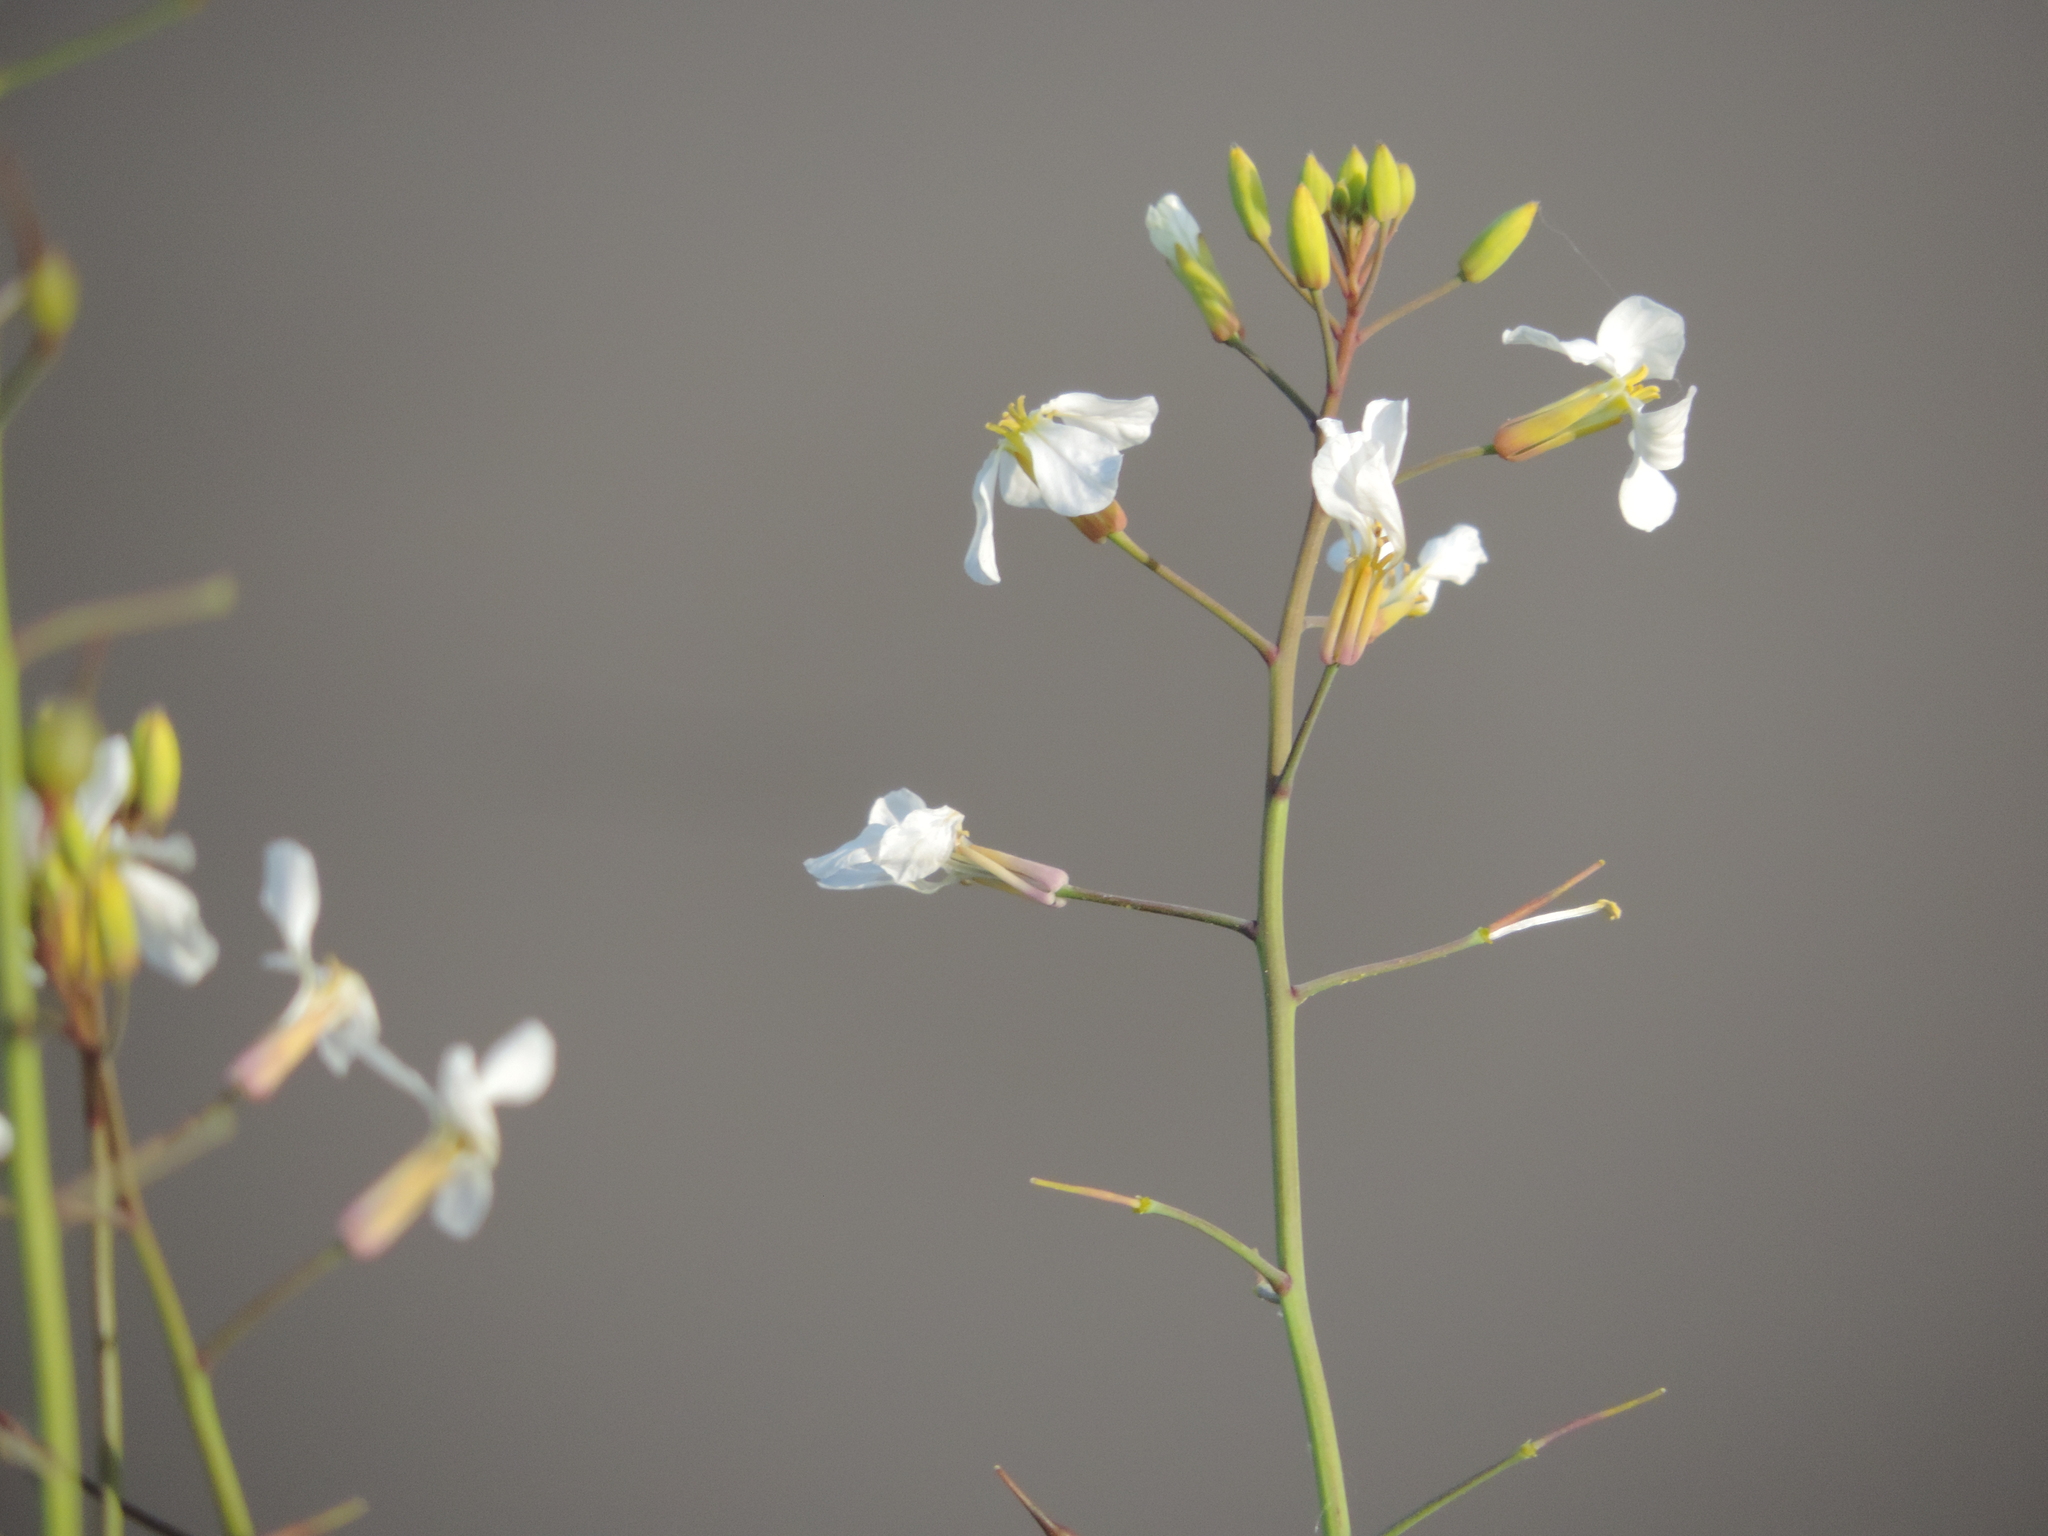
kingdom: Plantae
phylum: Tracheophyta
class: Magnoliopsida
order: Brassicales
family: Brassicaceae
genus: Raphanus
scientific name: Raphanus raphanistrum
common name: Wild radish
